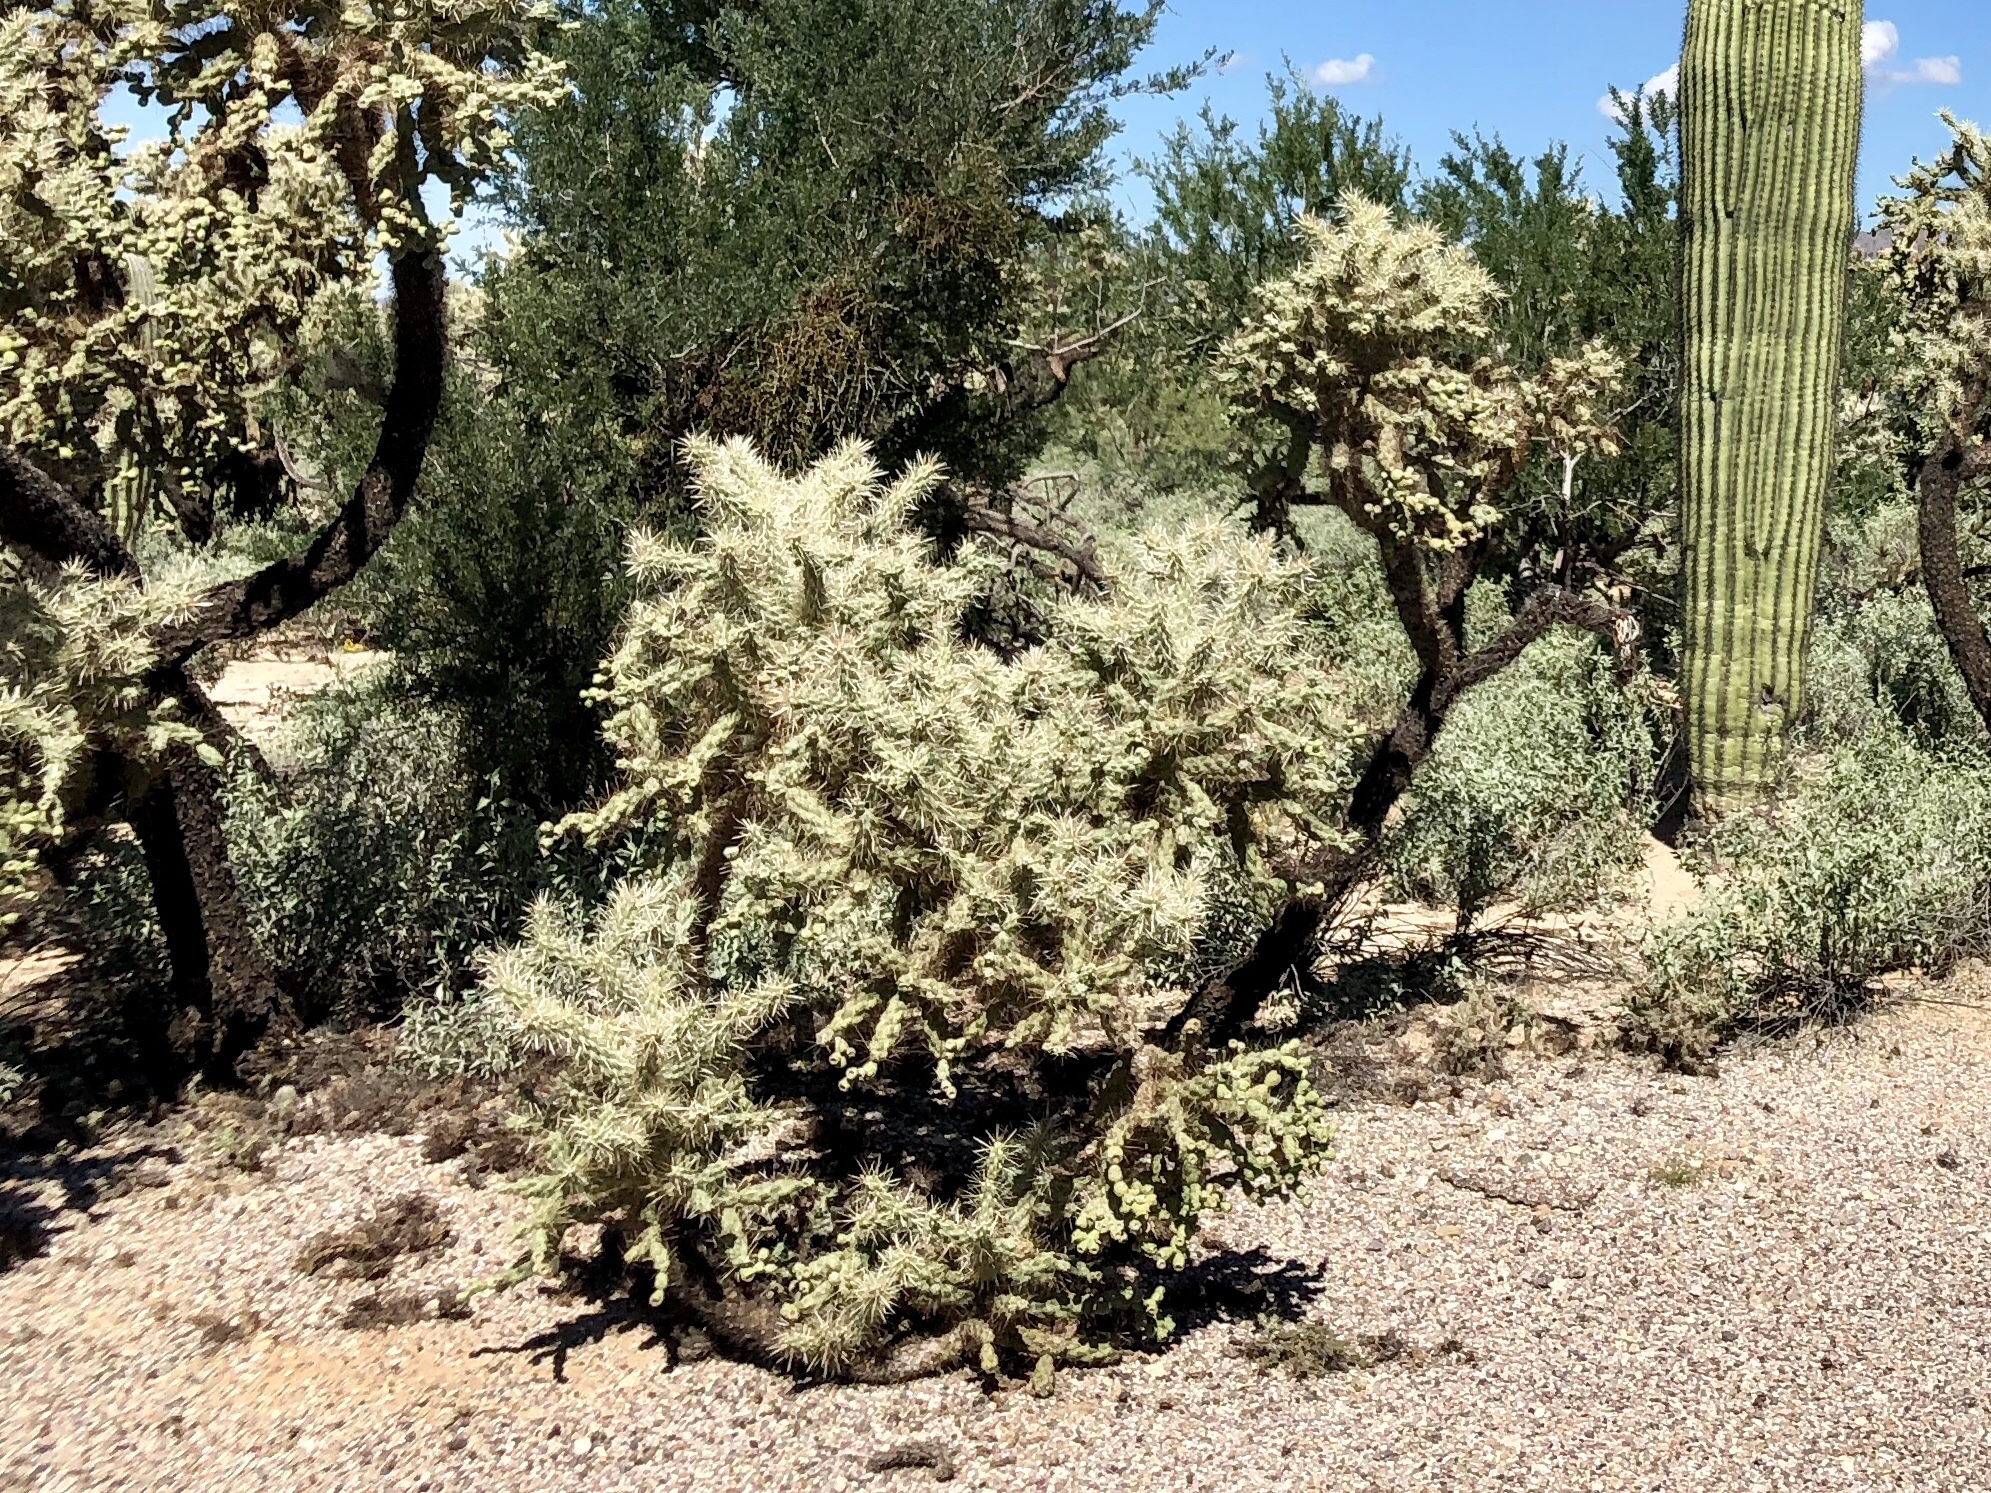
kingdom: Plantae
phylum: Tracheophyta
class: Magnoliopsida
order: Caryophyllales
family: Cactaceae
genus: Cylindropuntia
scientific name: Cylindropuntia fulgida
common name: Jumping cholla
